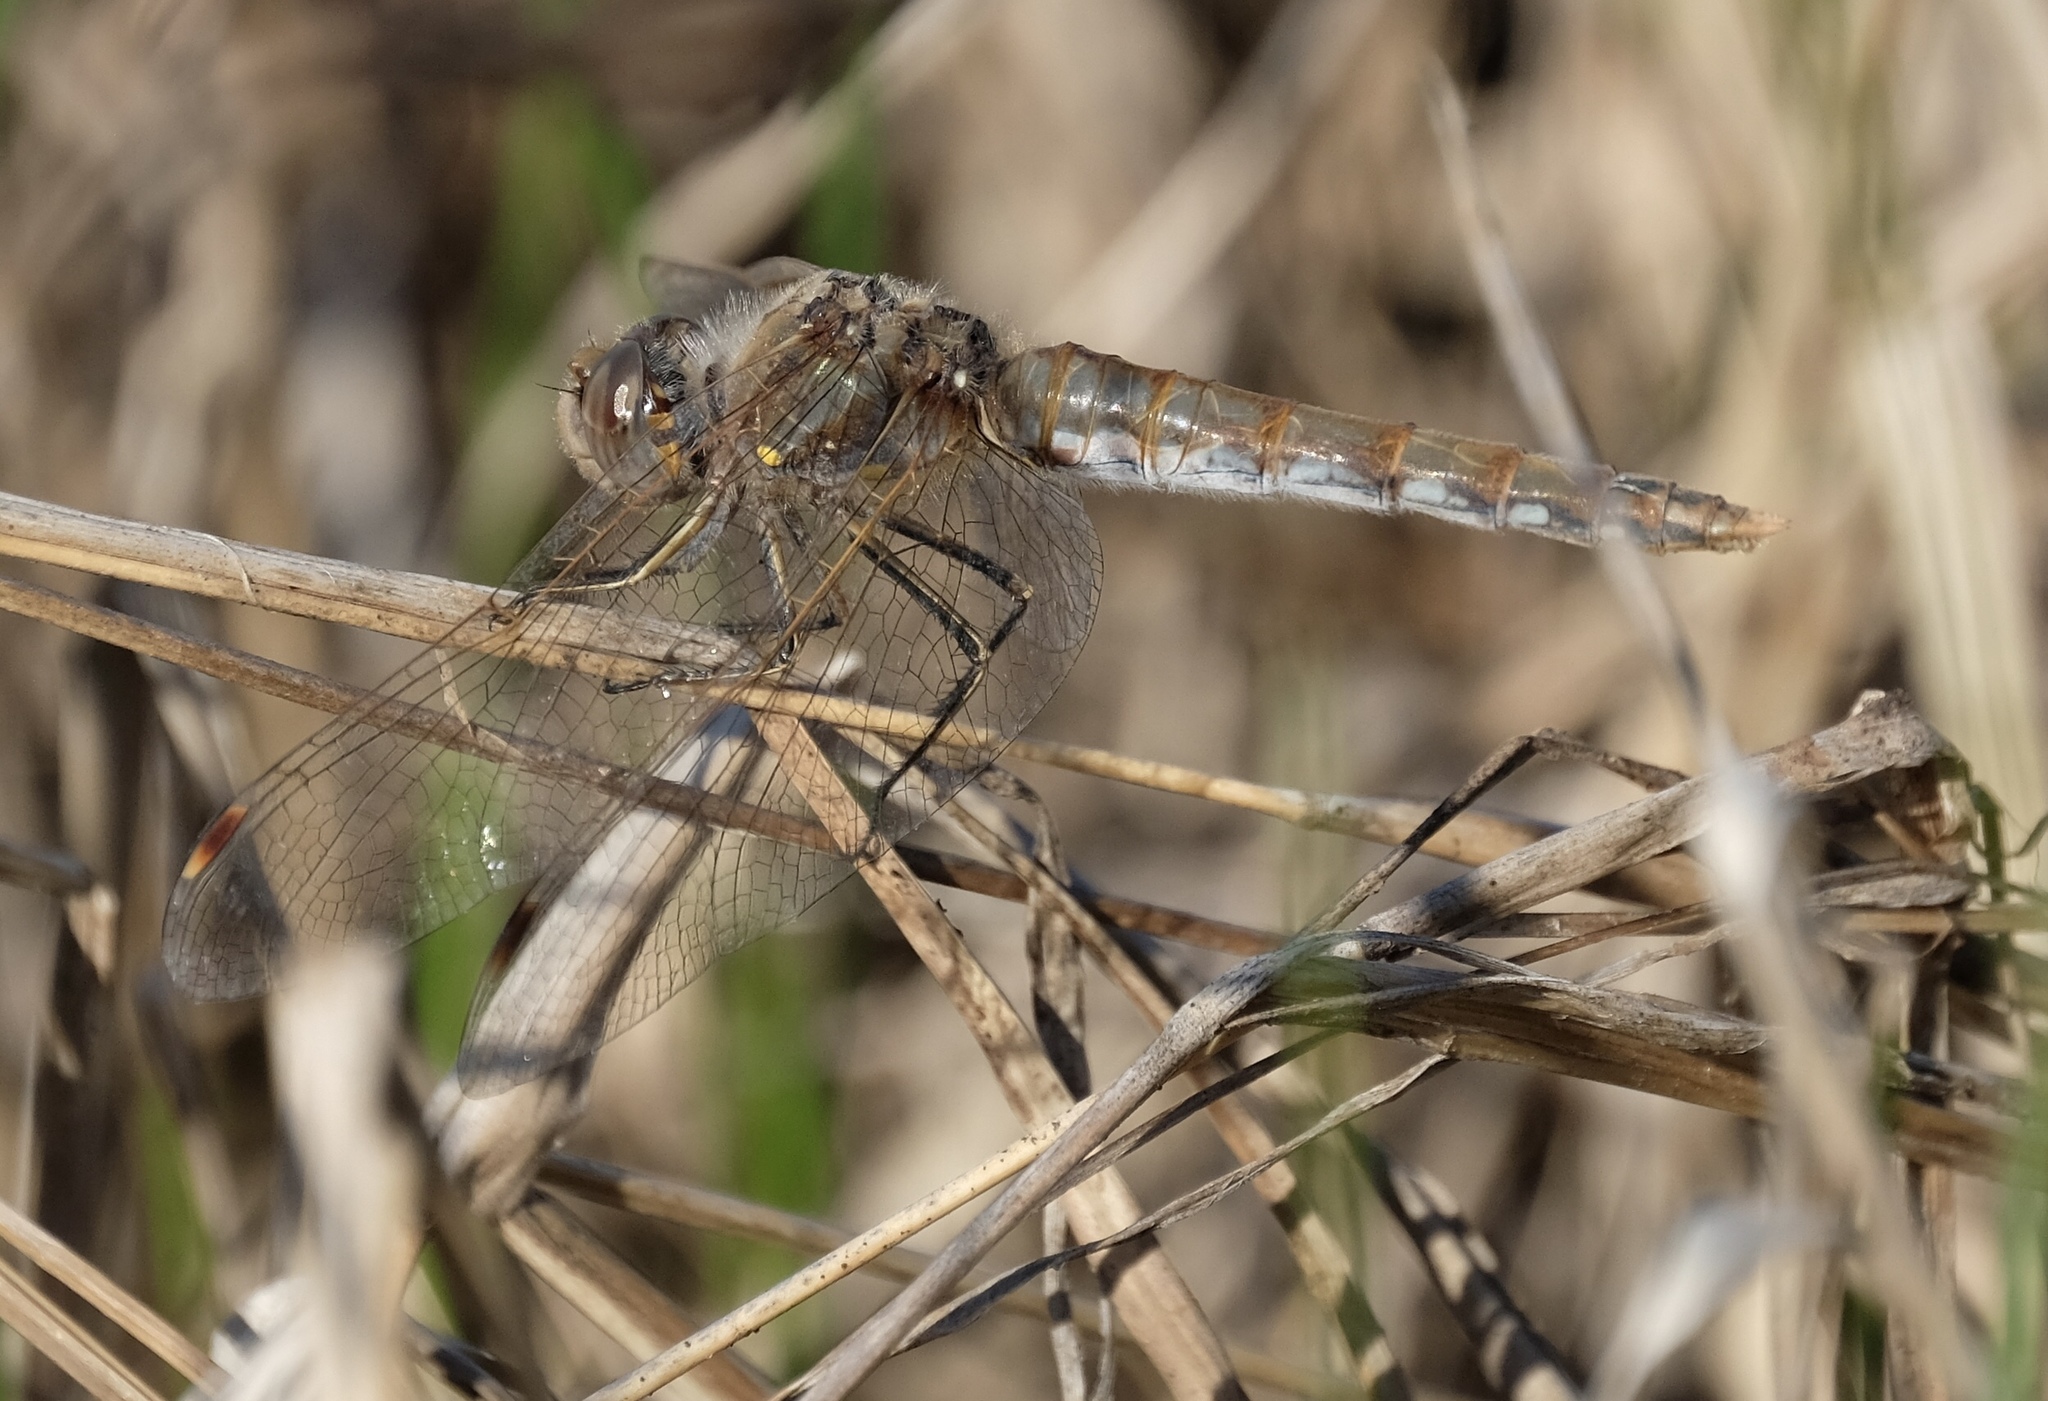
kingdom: Animalia
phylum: Arthropoda
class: Insecta
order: Odonata
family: Libellulidae
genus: Sympetrum
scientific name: Sympetrum corruptum
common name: Variegated meadowhawk
